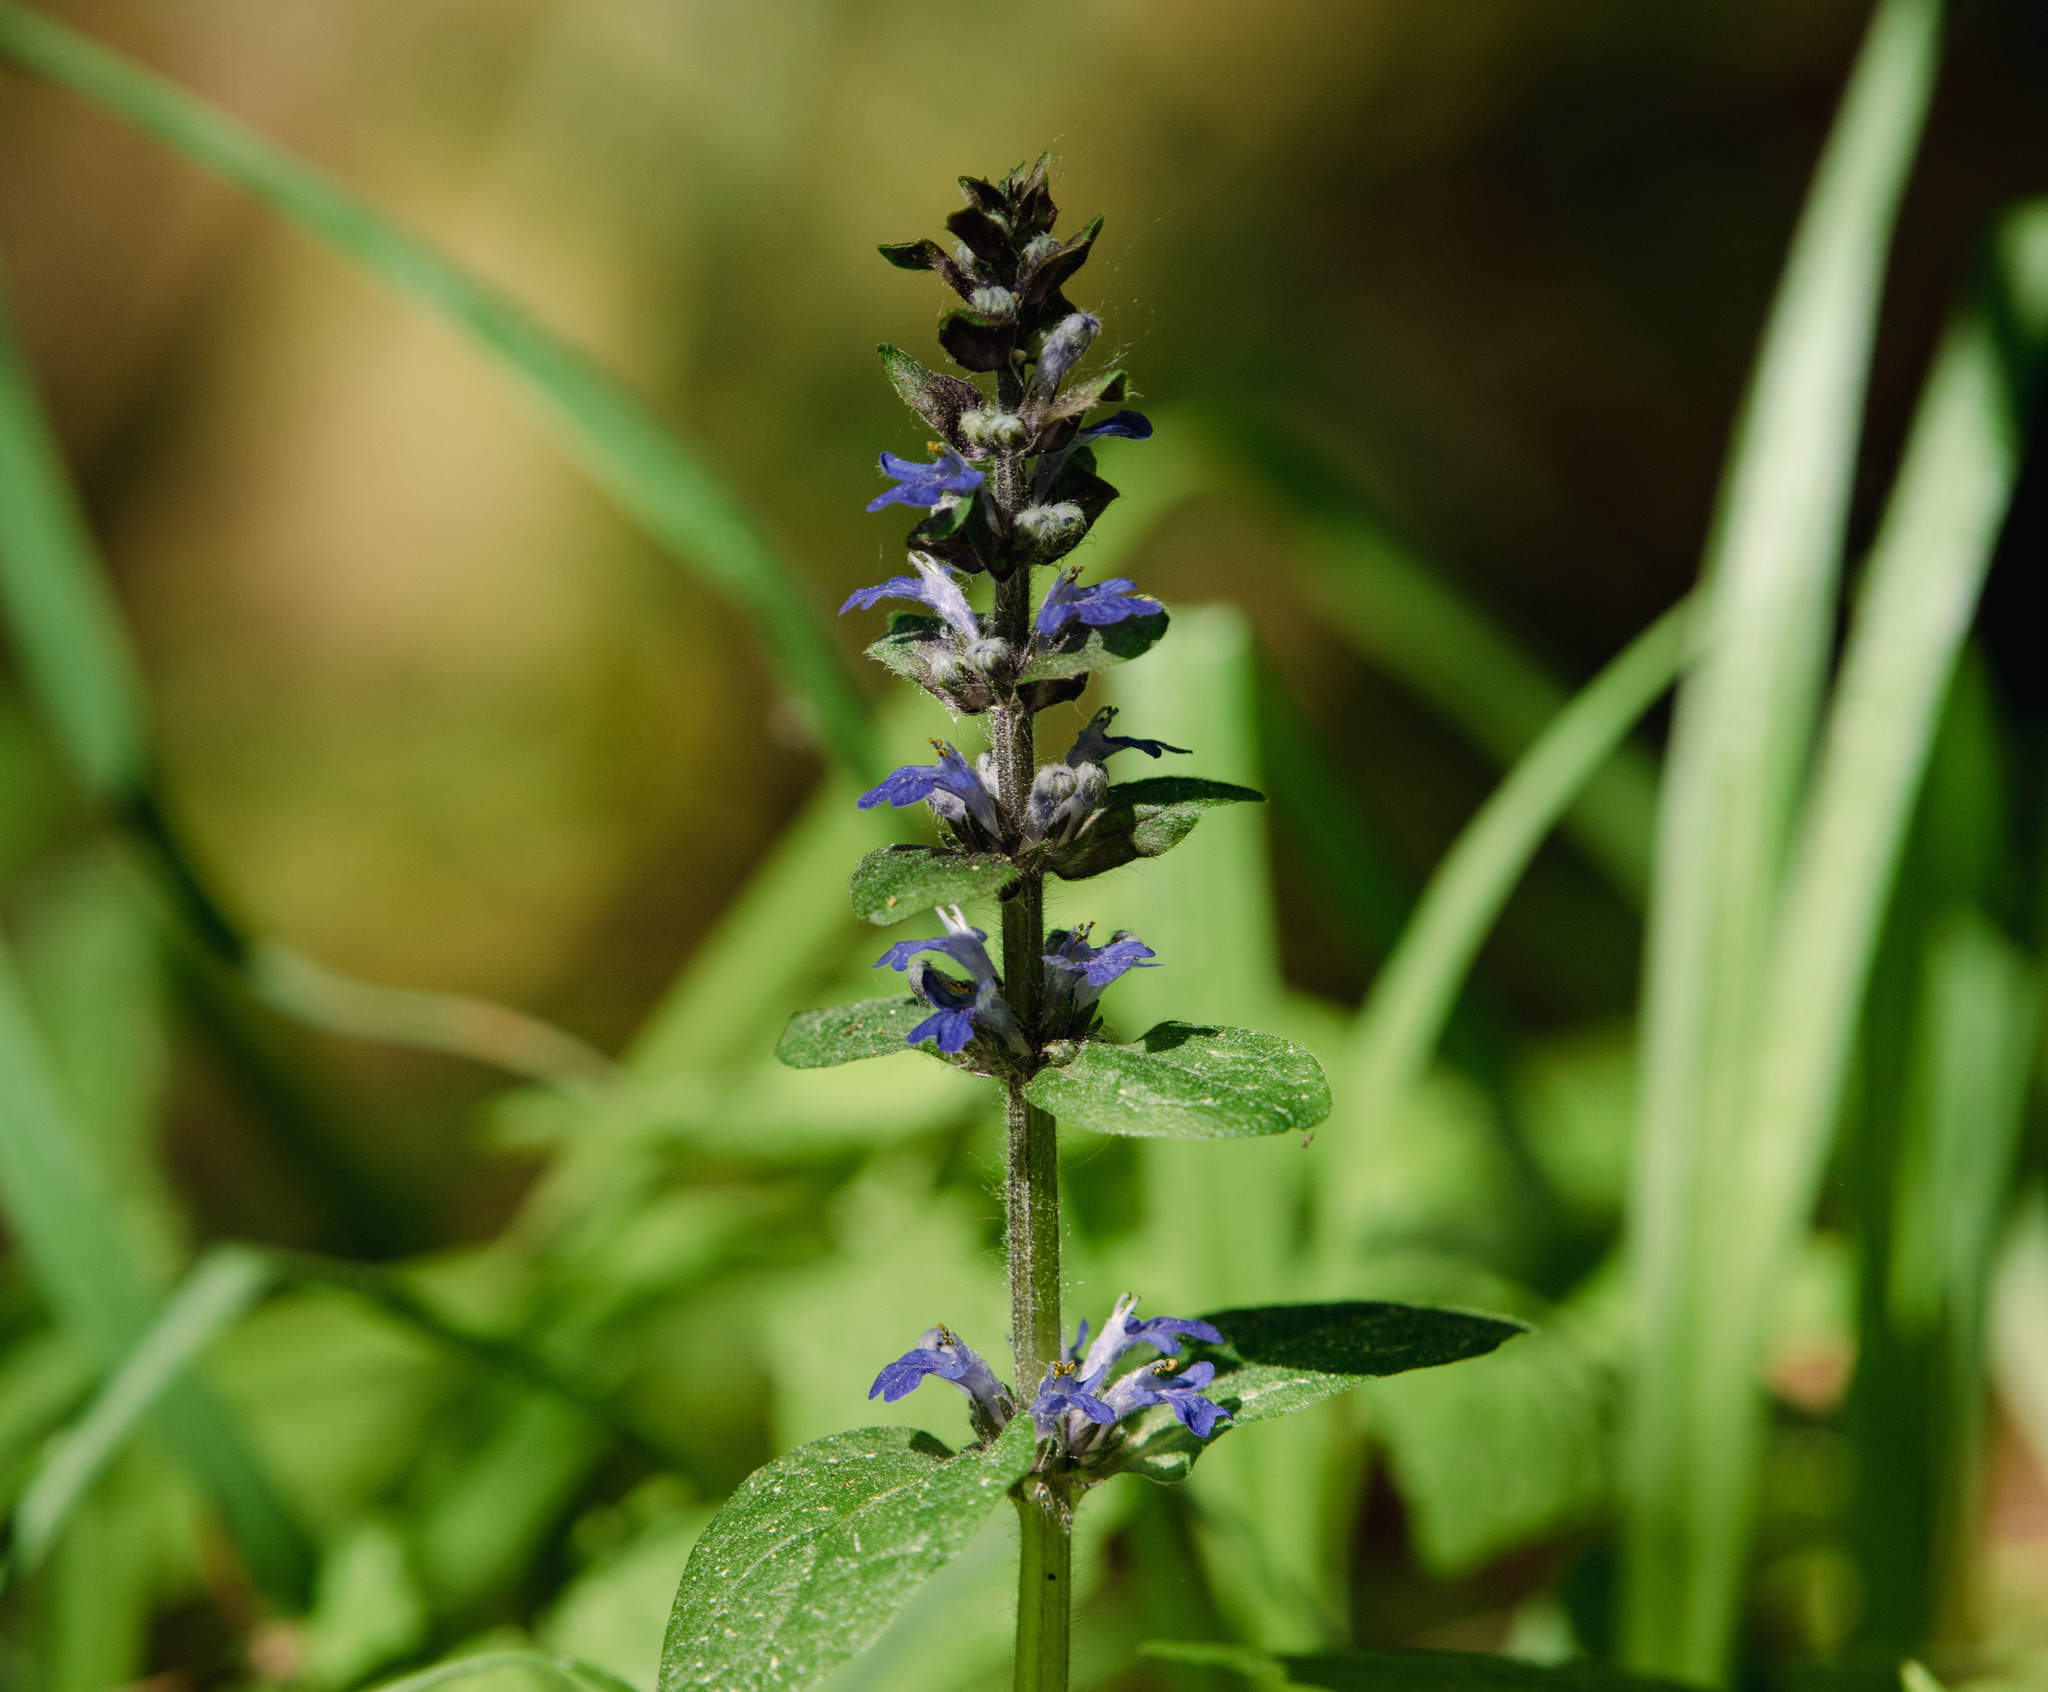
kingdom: Plantae
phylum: Tracheophyta
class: Magnoliopsida
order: Lamiales
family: Lamiaceae
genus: Ajuga
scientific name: Ajuga reptans
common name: Bugle
